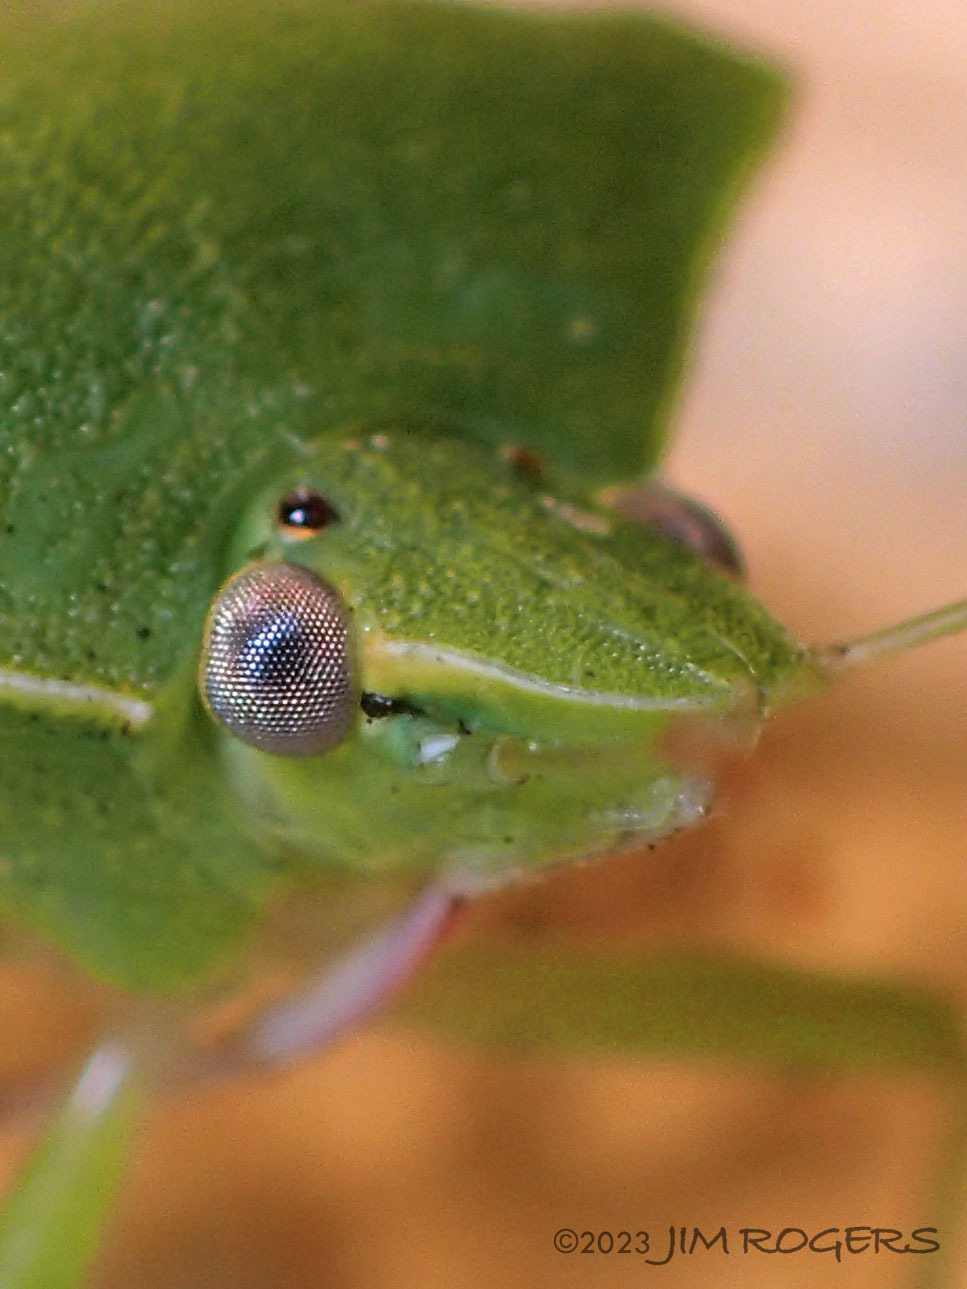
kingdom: Animalia
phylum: Arthropoda
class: Insecta
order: Hemiptera
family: Pentatomidae
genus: Nezara
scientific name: Nezara viridula
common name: Southern green stink bug
